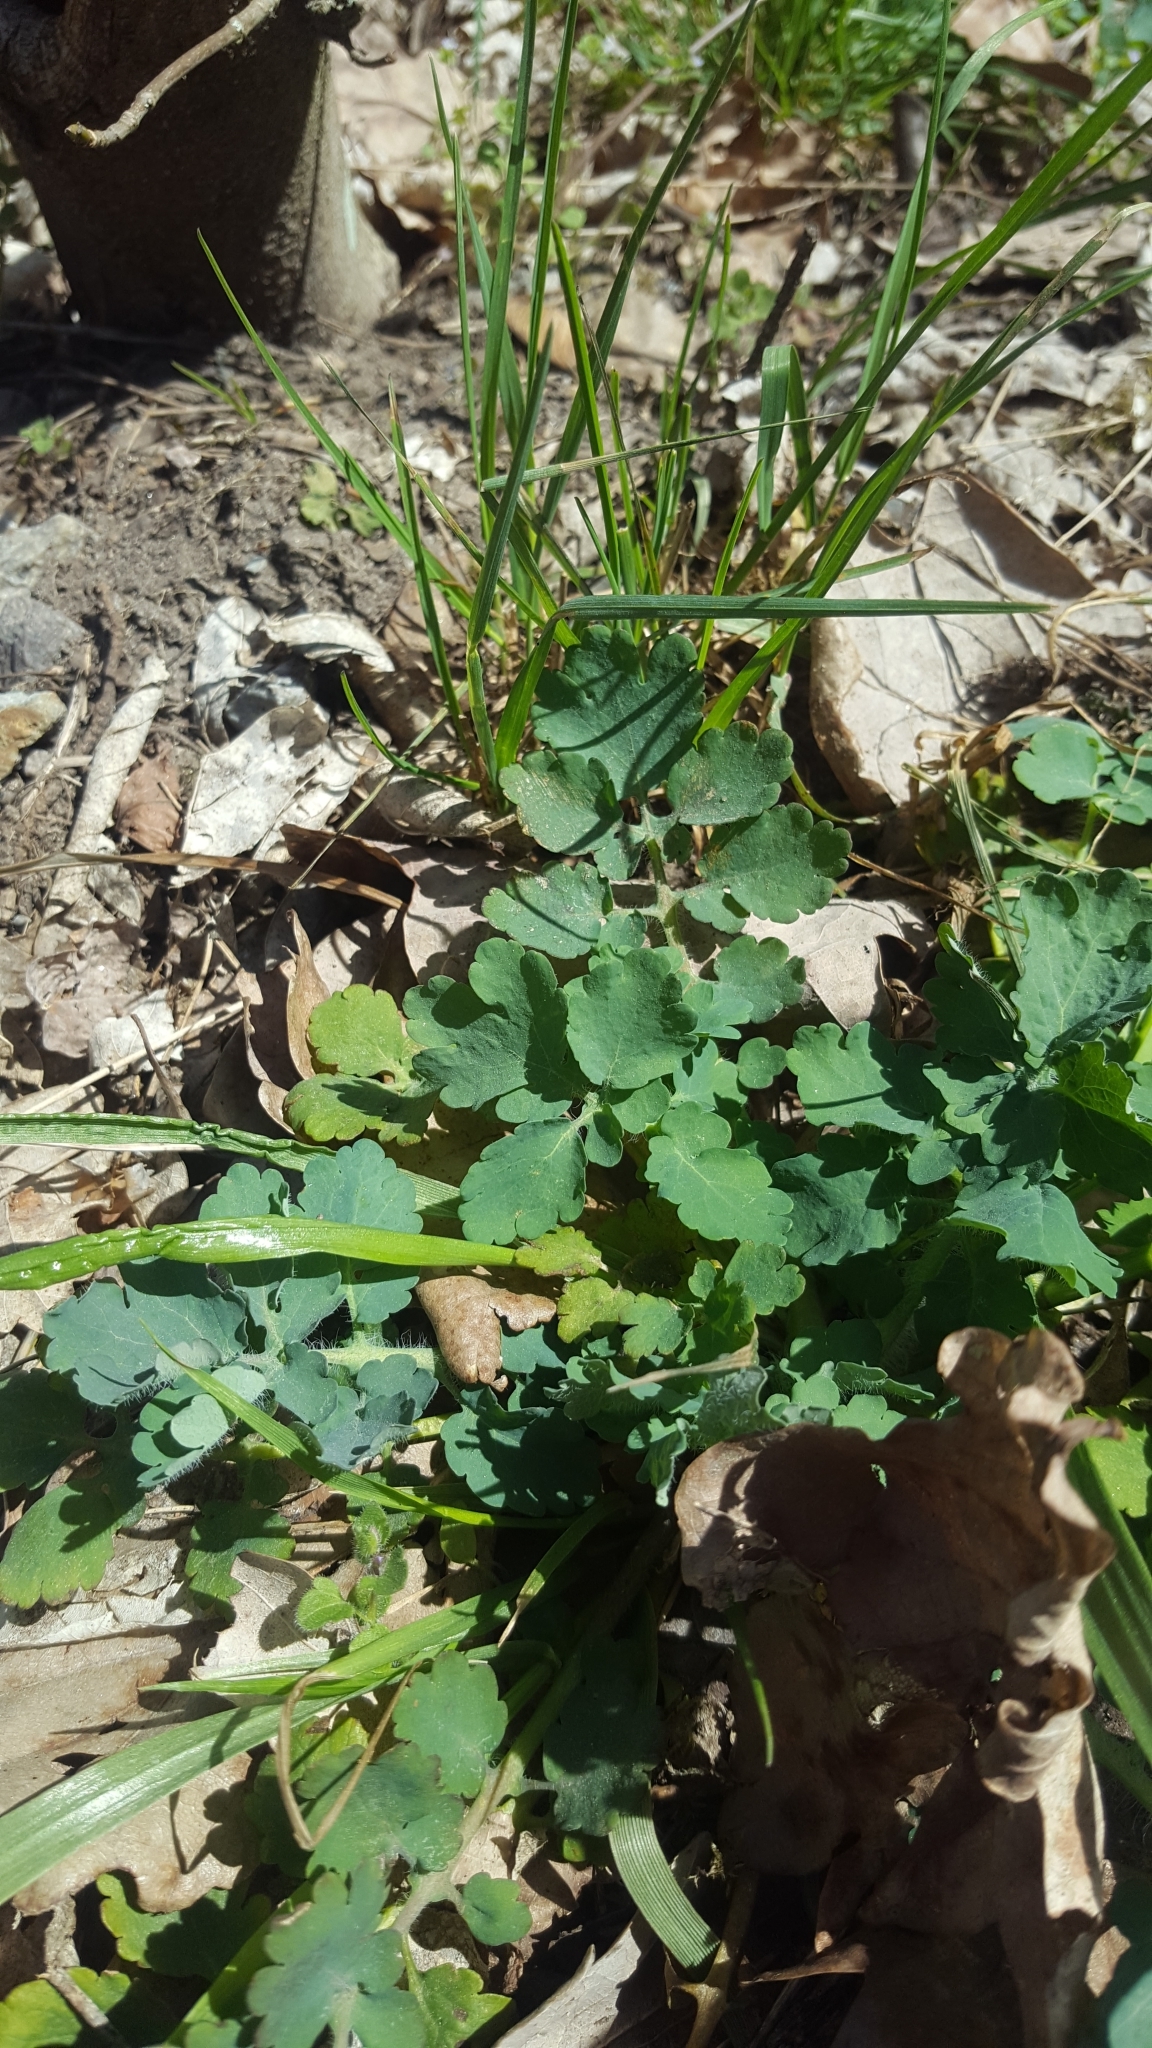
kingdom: Plantae
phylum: Tracheophyta
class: Magnoliopsida
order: Ranunculales
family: Papaveraceae
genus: Chelidonium
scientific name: Chelidonium majus
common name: Greater celandine
